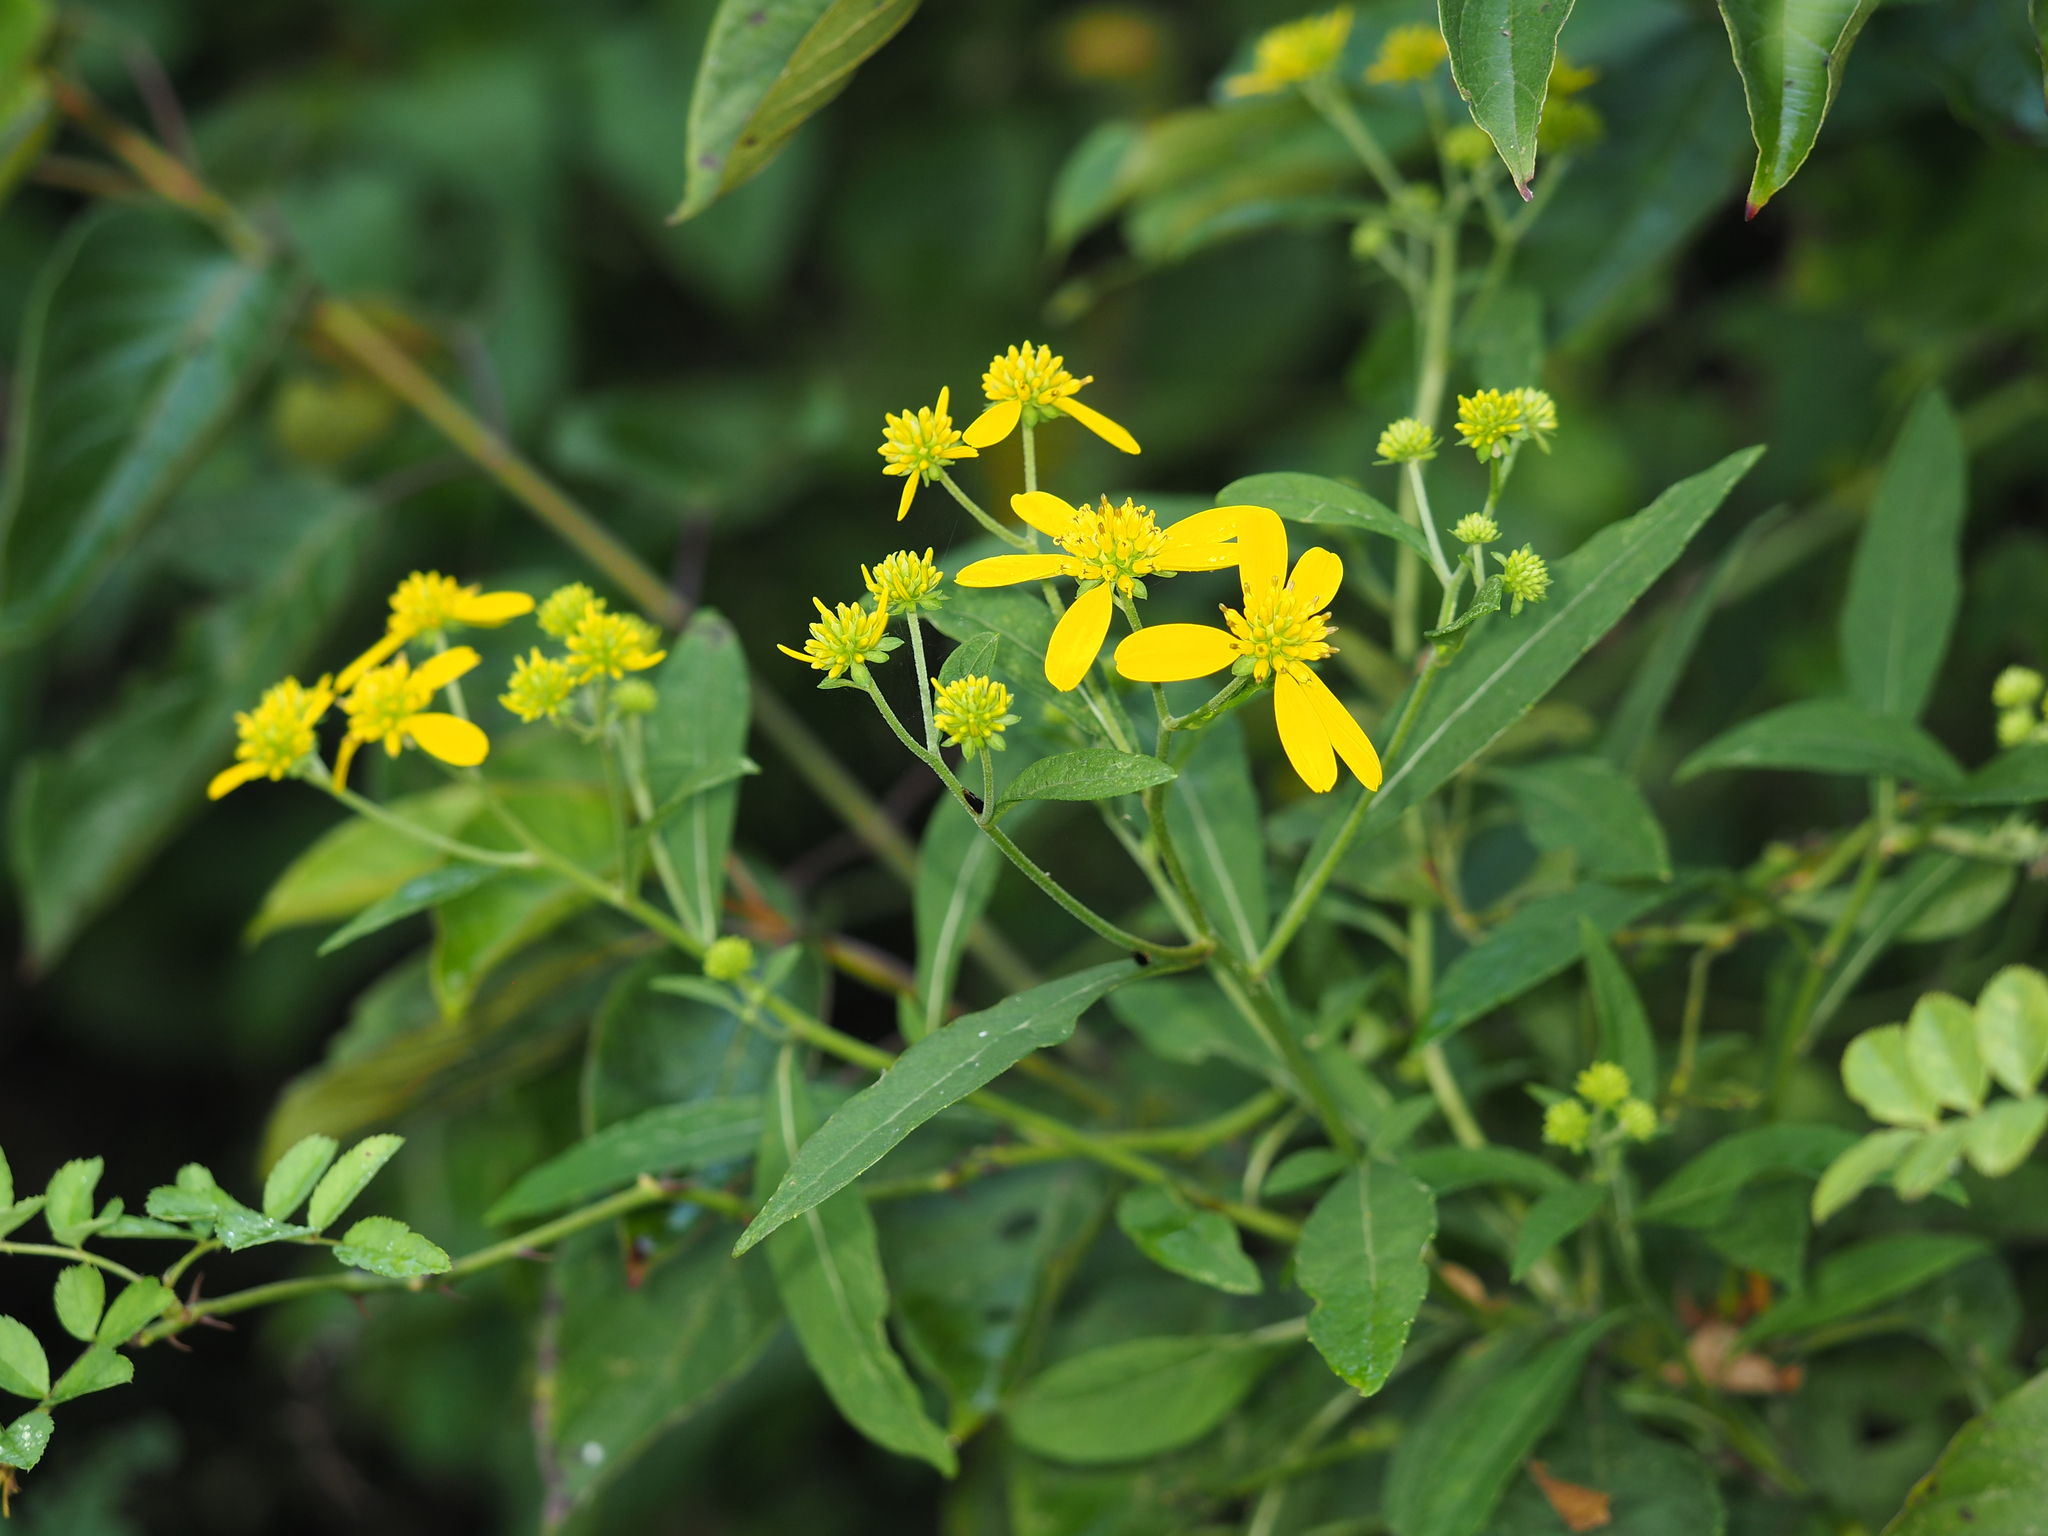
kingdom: Plantae
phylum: Tracheophyta
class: Magnoliopsida
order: Asterales
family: Asteraceae
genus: Verbesina
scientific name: Verbesina alternifolia
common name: Wingstem
